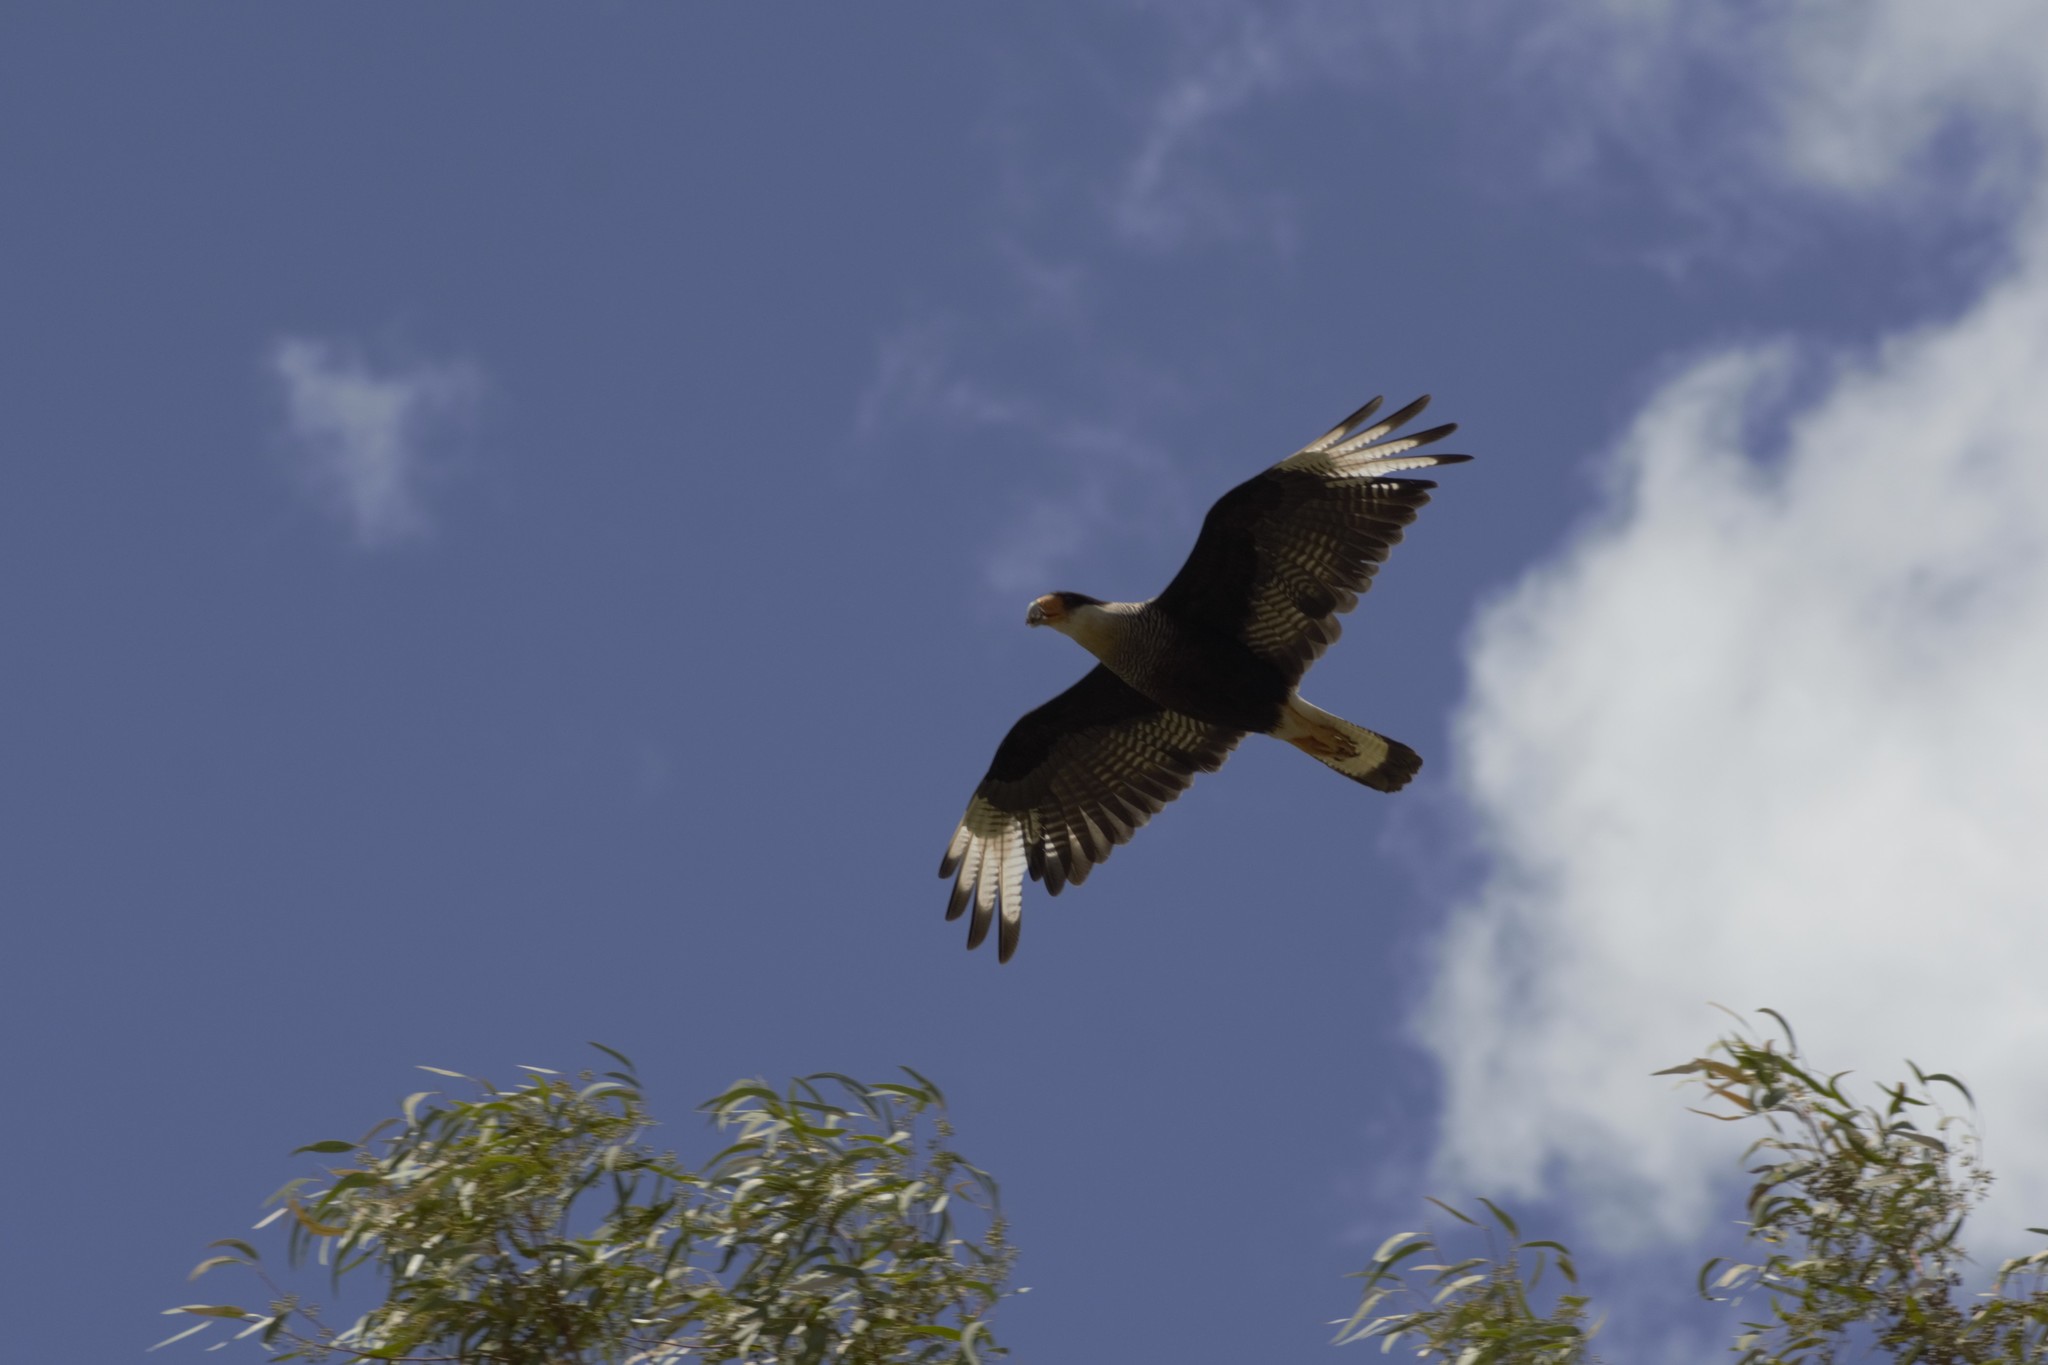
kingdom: Animalia
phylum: Chordata
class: Aves
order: Falconiformes
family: Falconidae
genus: Caracara
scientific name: Caracara plancus
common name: Southern caracara
